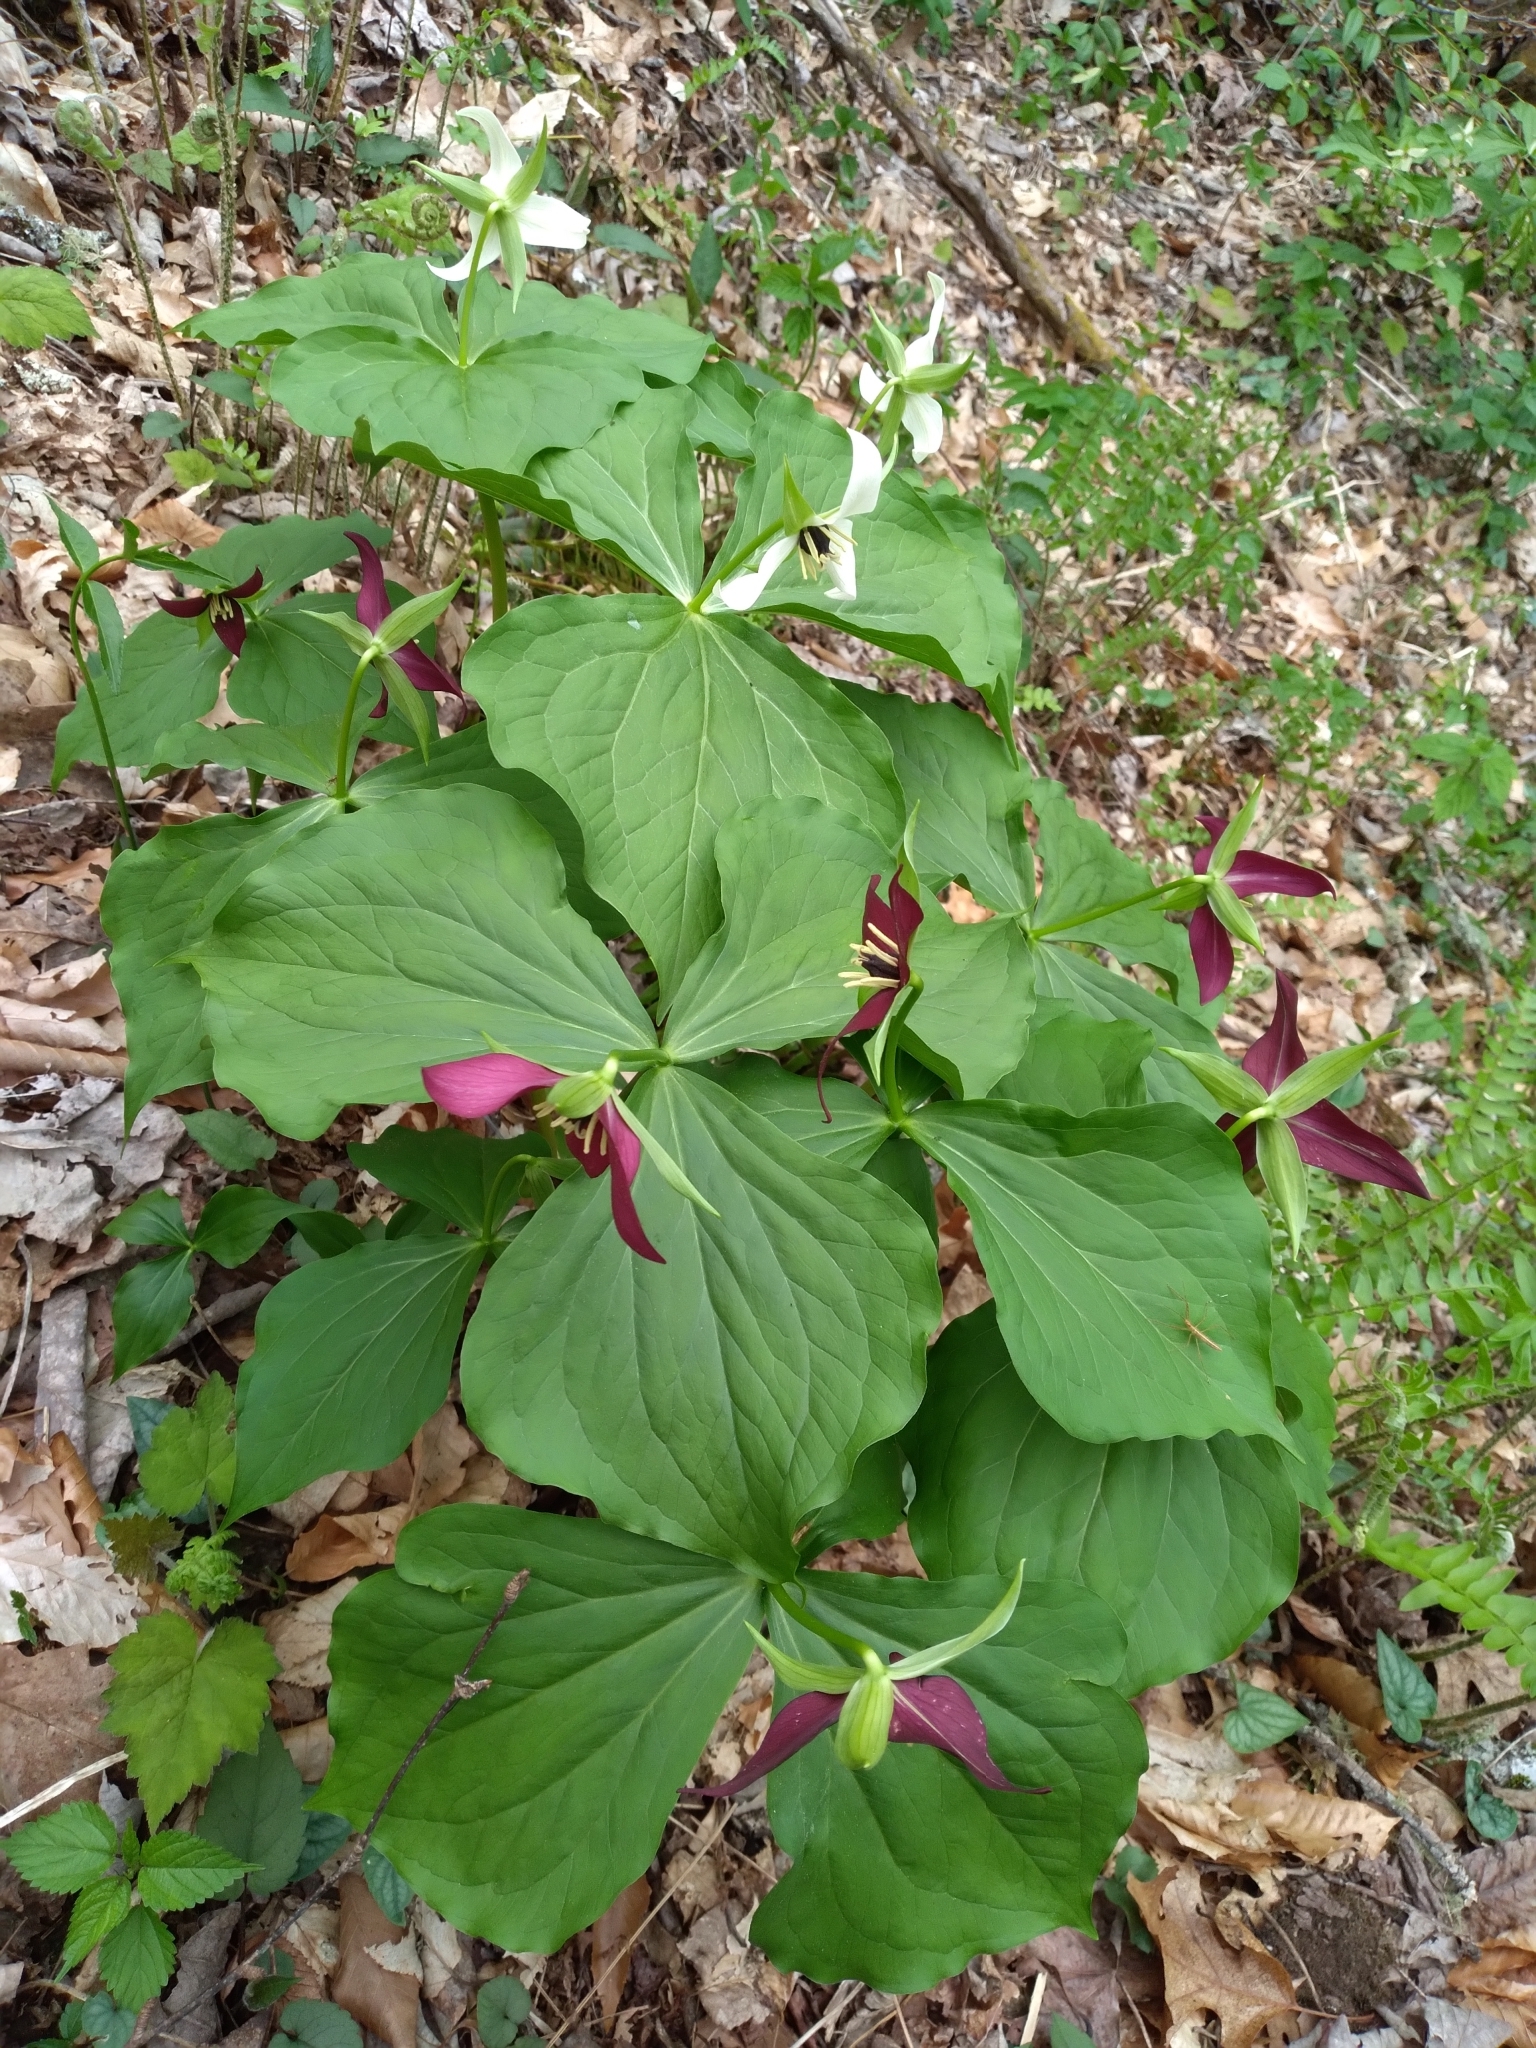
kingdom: Plantae
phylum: Tracheophyta
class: Liliopsida
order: Liliales
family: Melanthiaceae
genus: Trillium
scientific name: Trillium erectum
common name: Purple trillium
